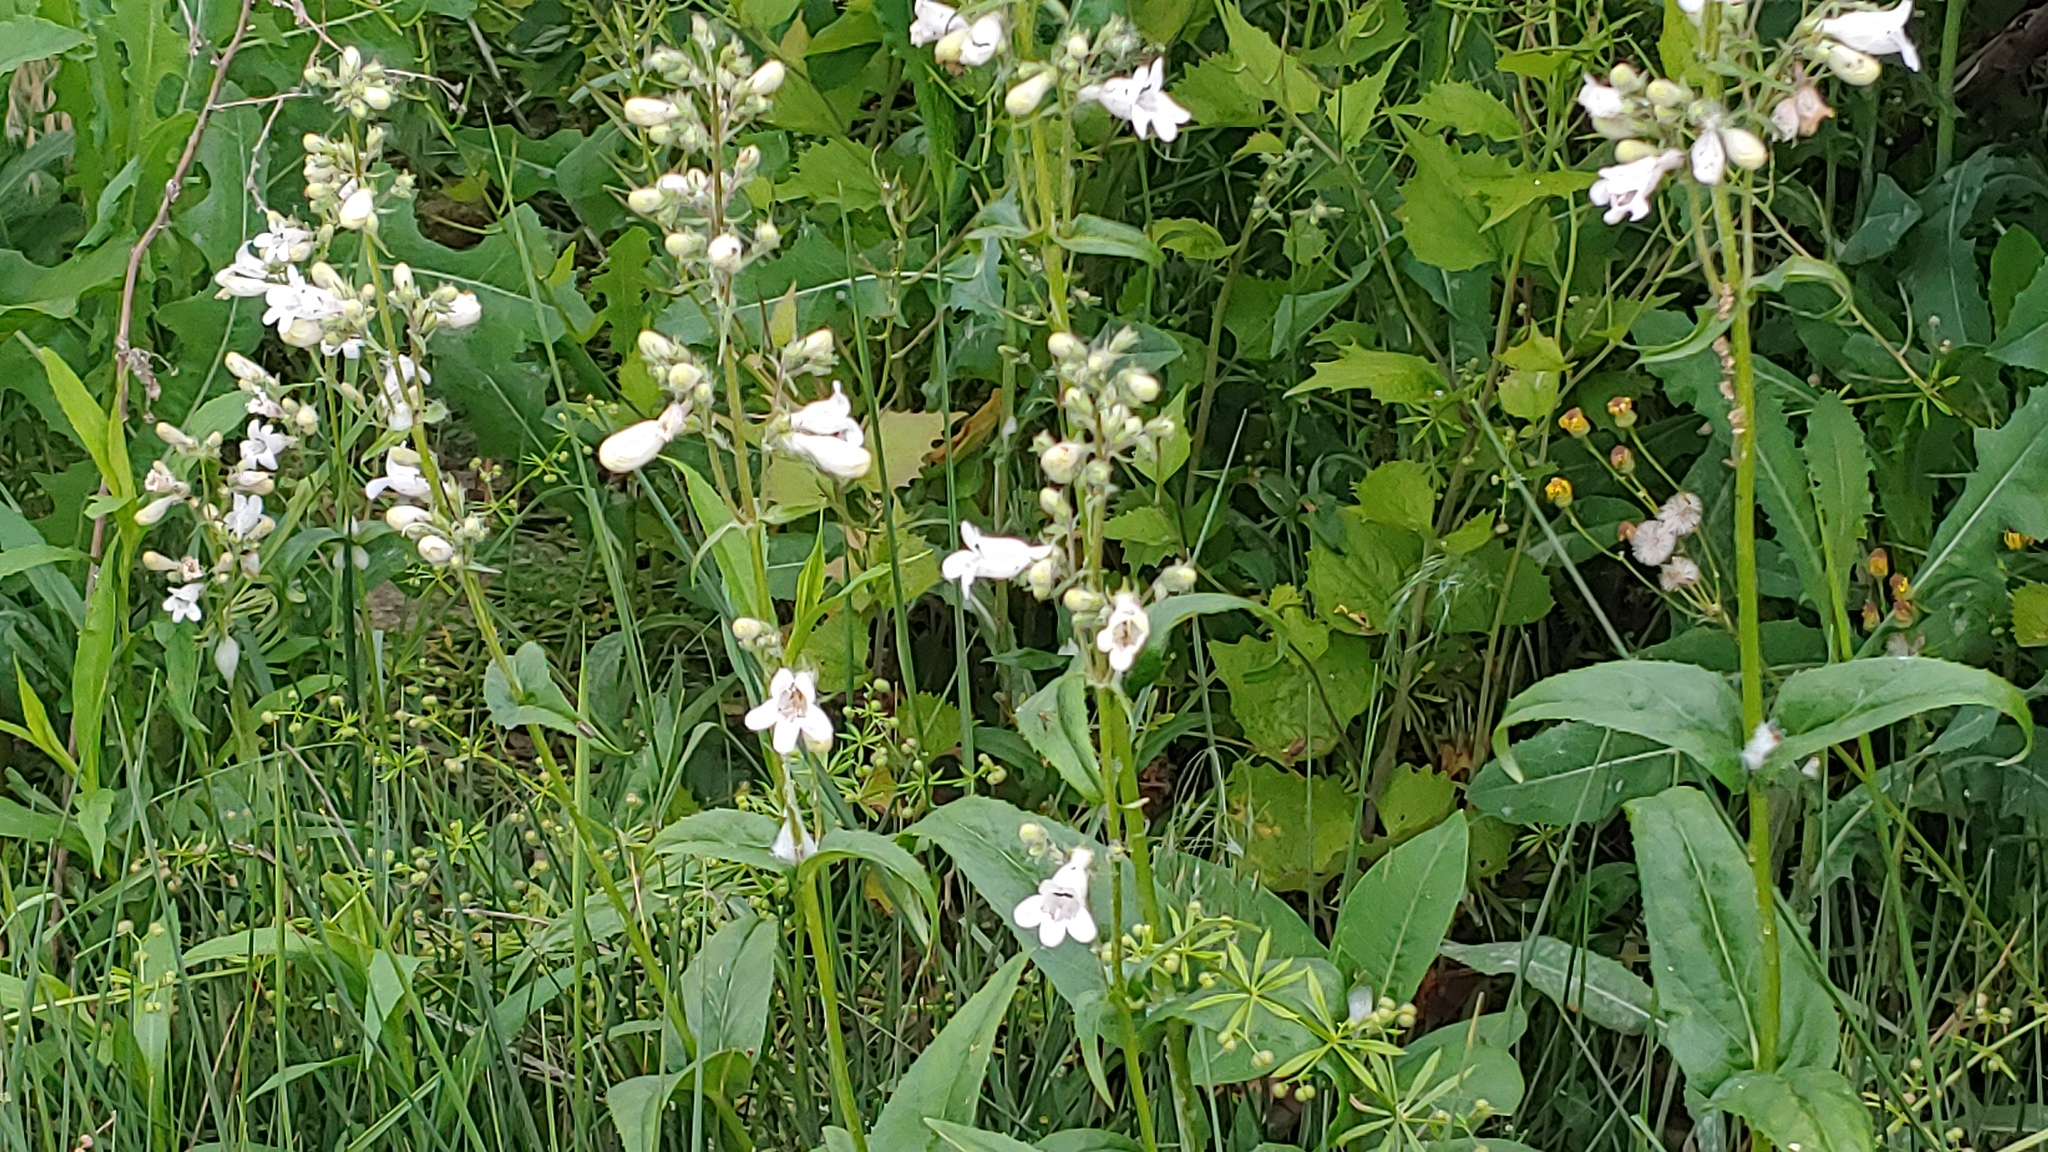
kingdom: Plantae
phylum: Tracheophyta
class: Magnoliopsida
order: Lamiales
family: Plantaginaceae
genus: Penstemon
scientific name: Penstemon digitalis
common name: Foxglove beardtongue
